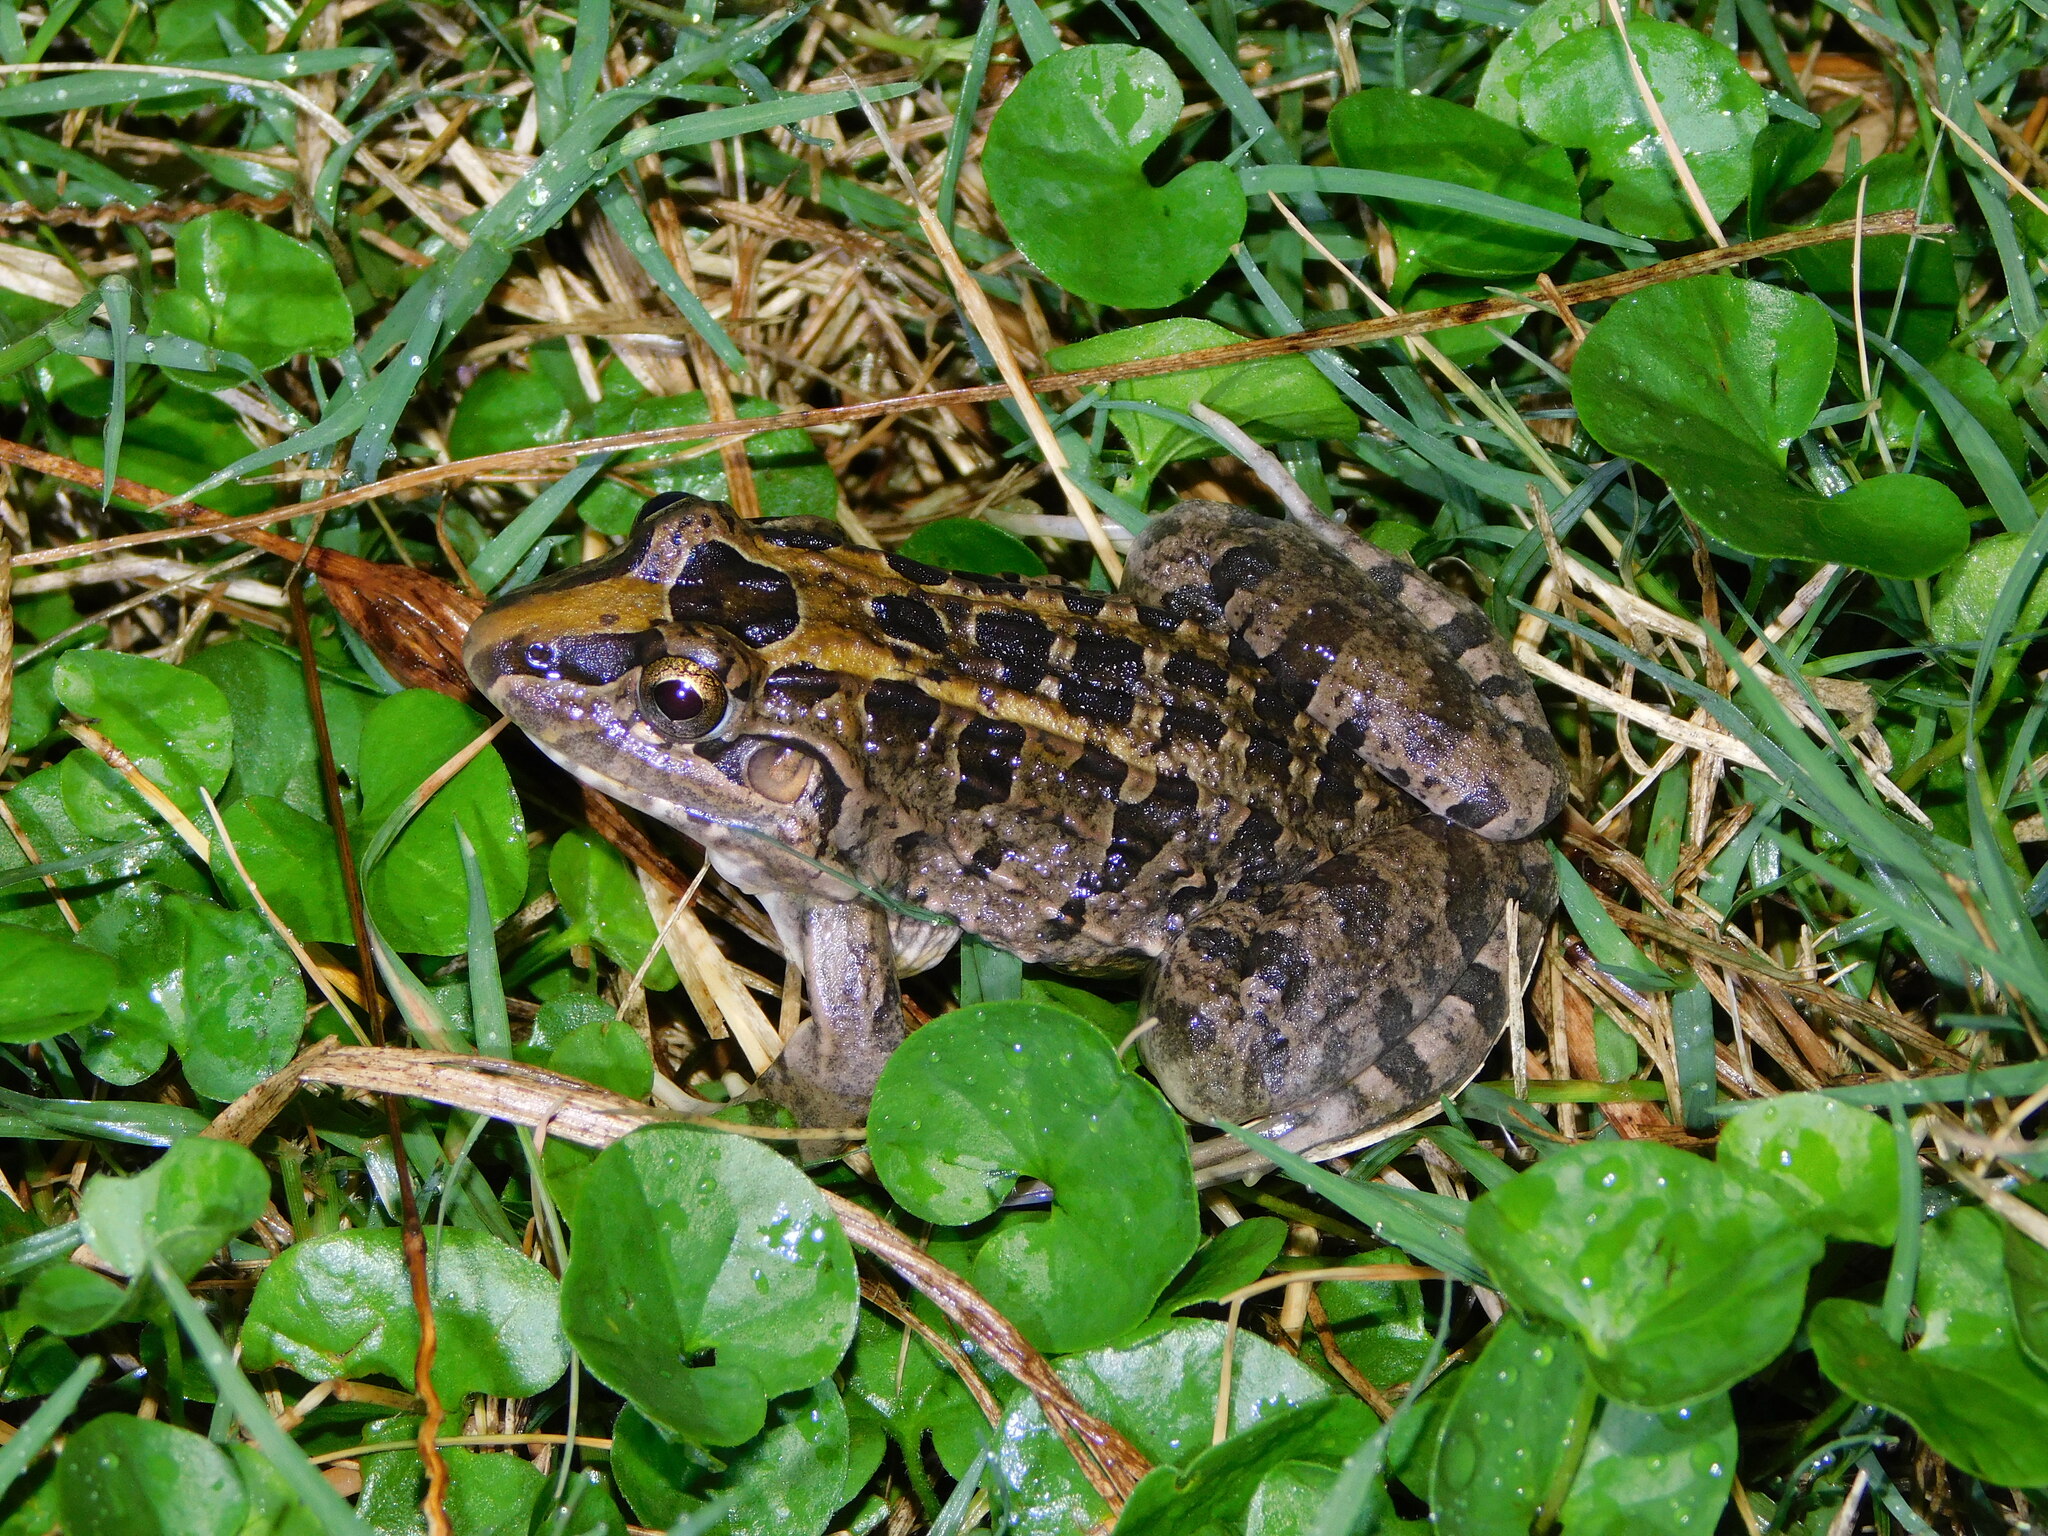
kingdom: Animalia
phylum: Chordata
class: Amphibia
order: Anura
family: Leptodactylidae
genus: Leptodactylus
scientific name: Leptodactylus macrosternum
